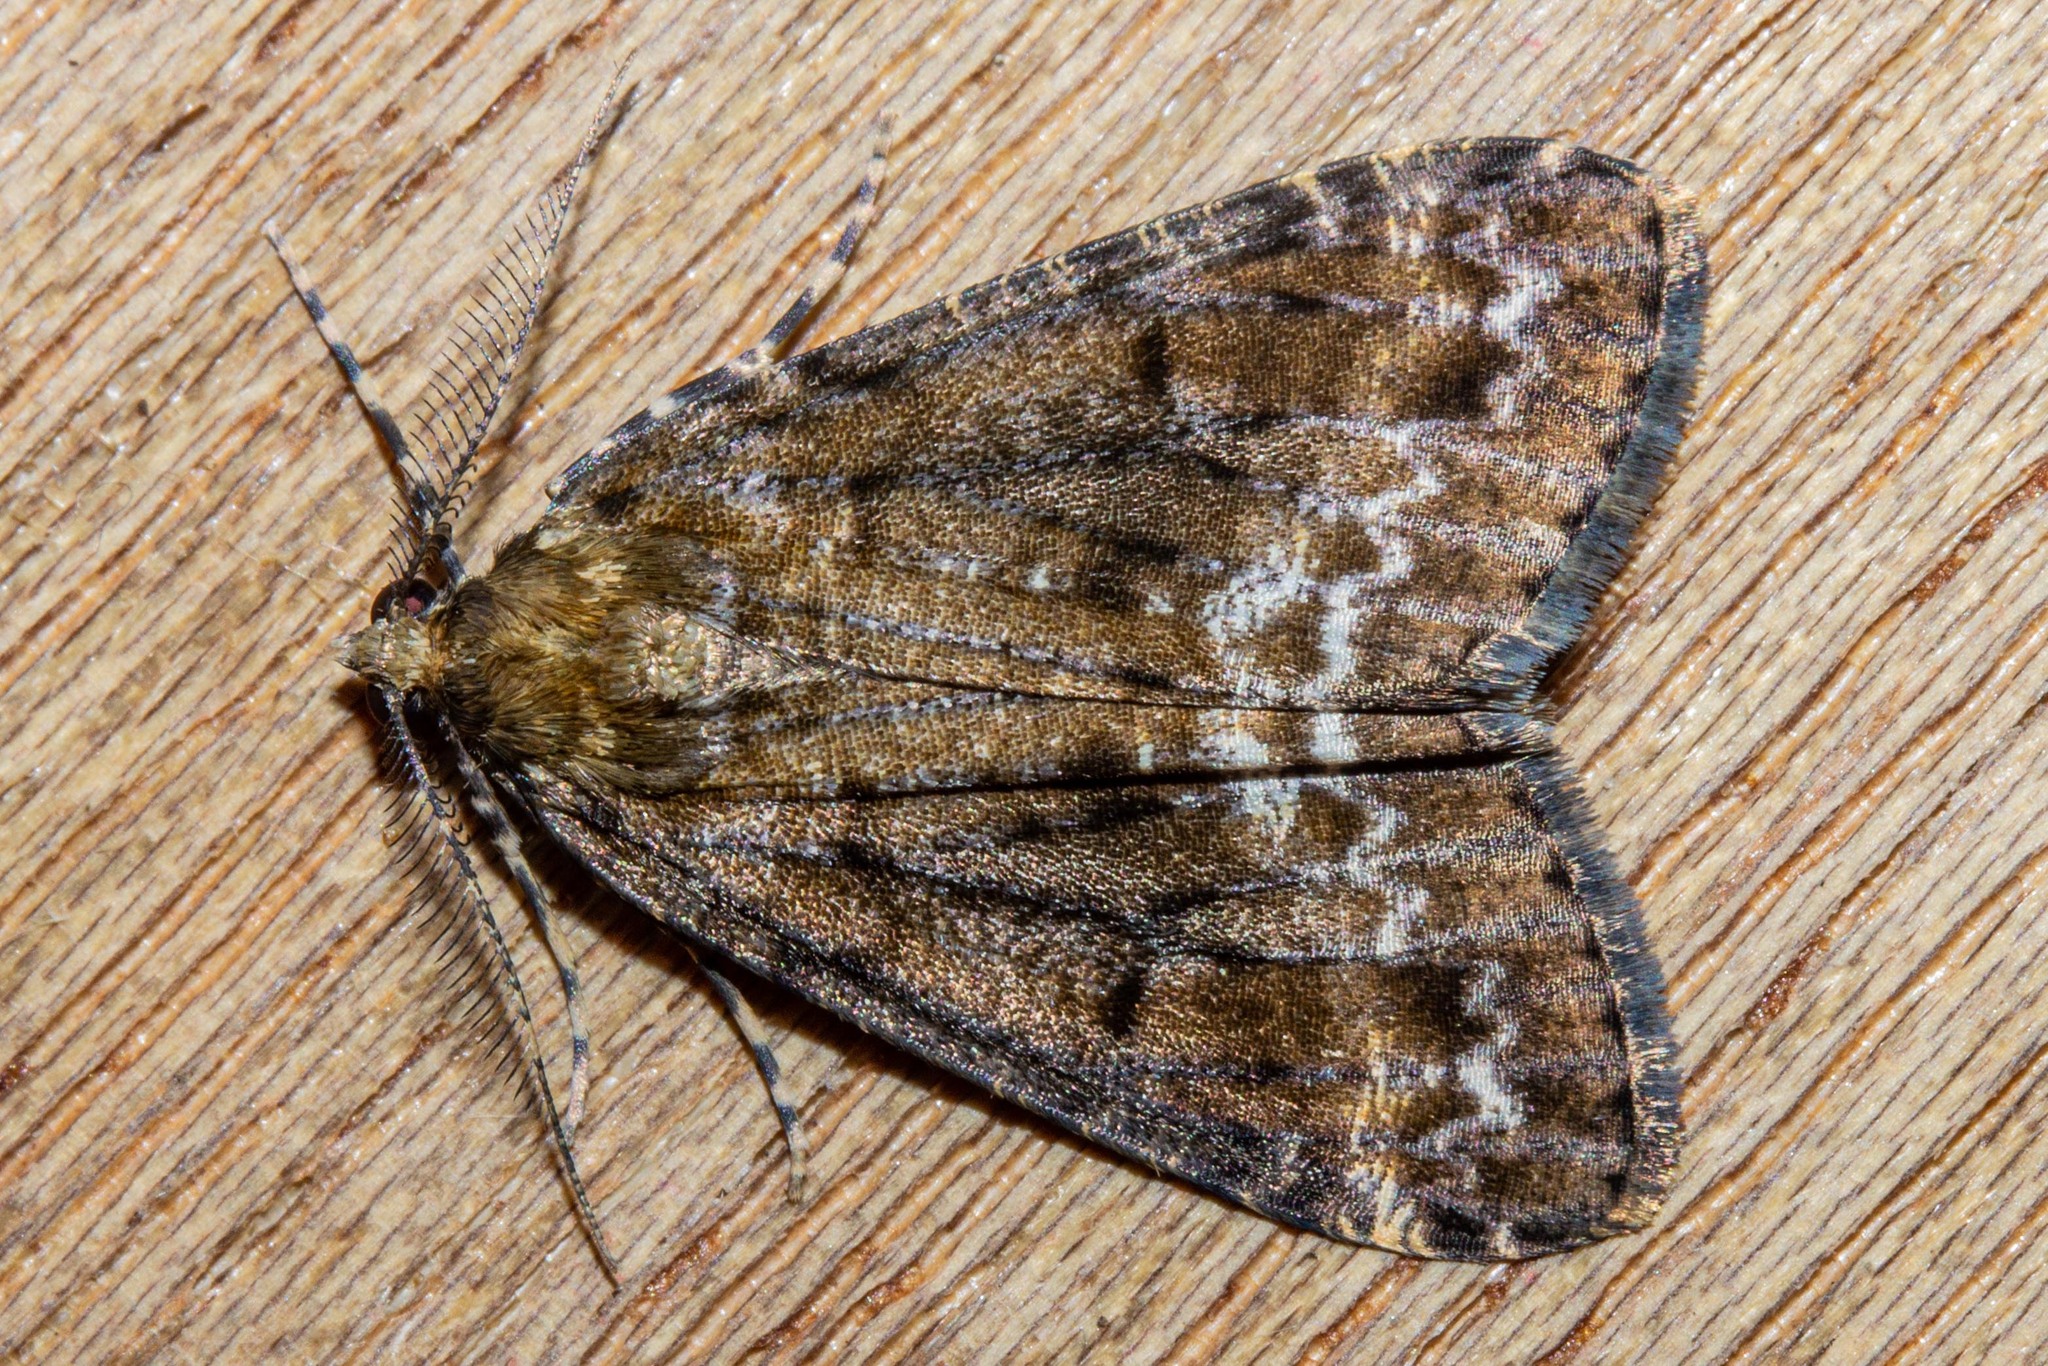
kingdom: Animalia
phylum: Arthropoda
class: Insecta
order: Lepidoptera
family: Geometridae
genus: Pseudocoremia
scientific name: Pseudocoremia leucelaea
